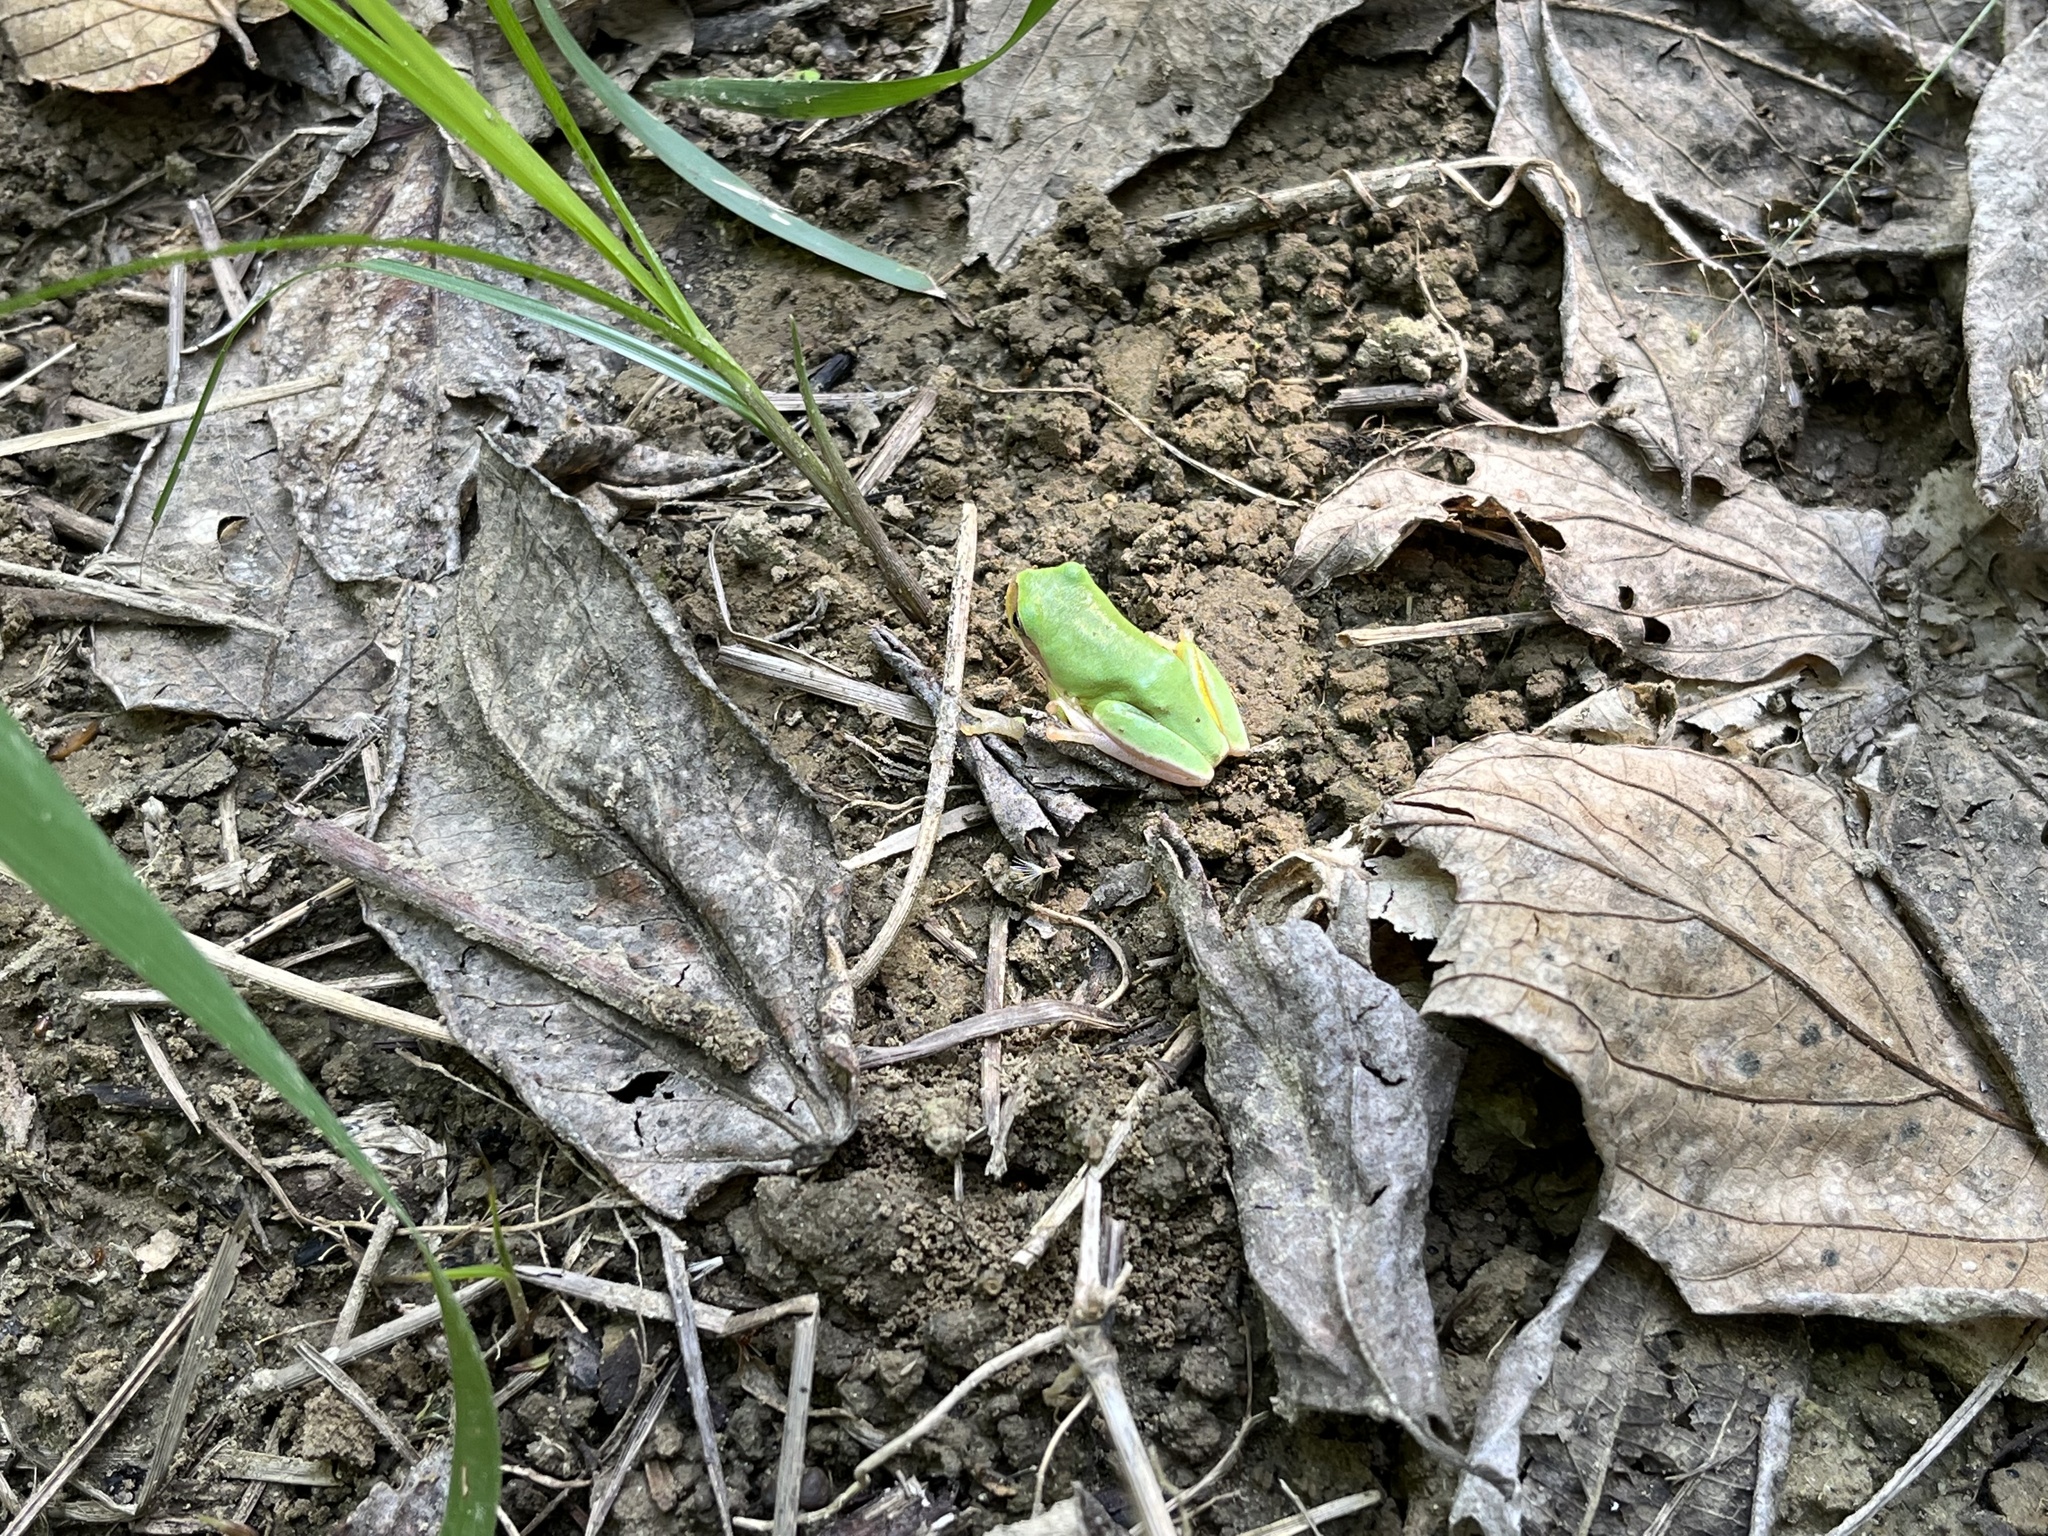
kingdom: Animalia
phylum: Chordata
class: Amphibia
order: Anura
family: Hylidae
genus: Hyla
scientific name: Hyla chinensis
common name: Common chinese treefrog
